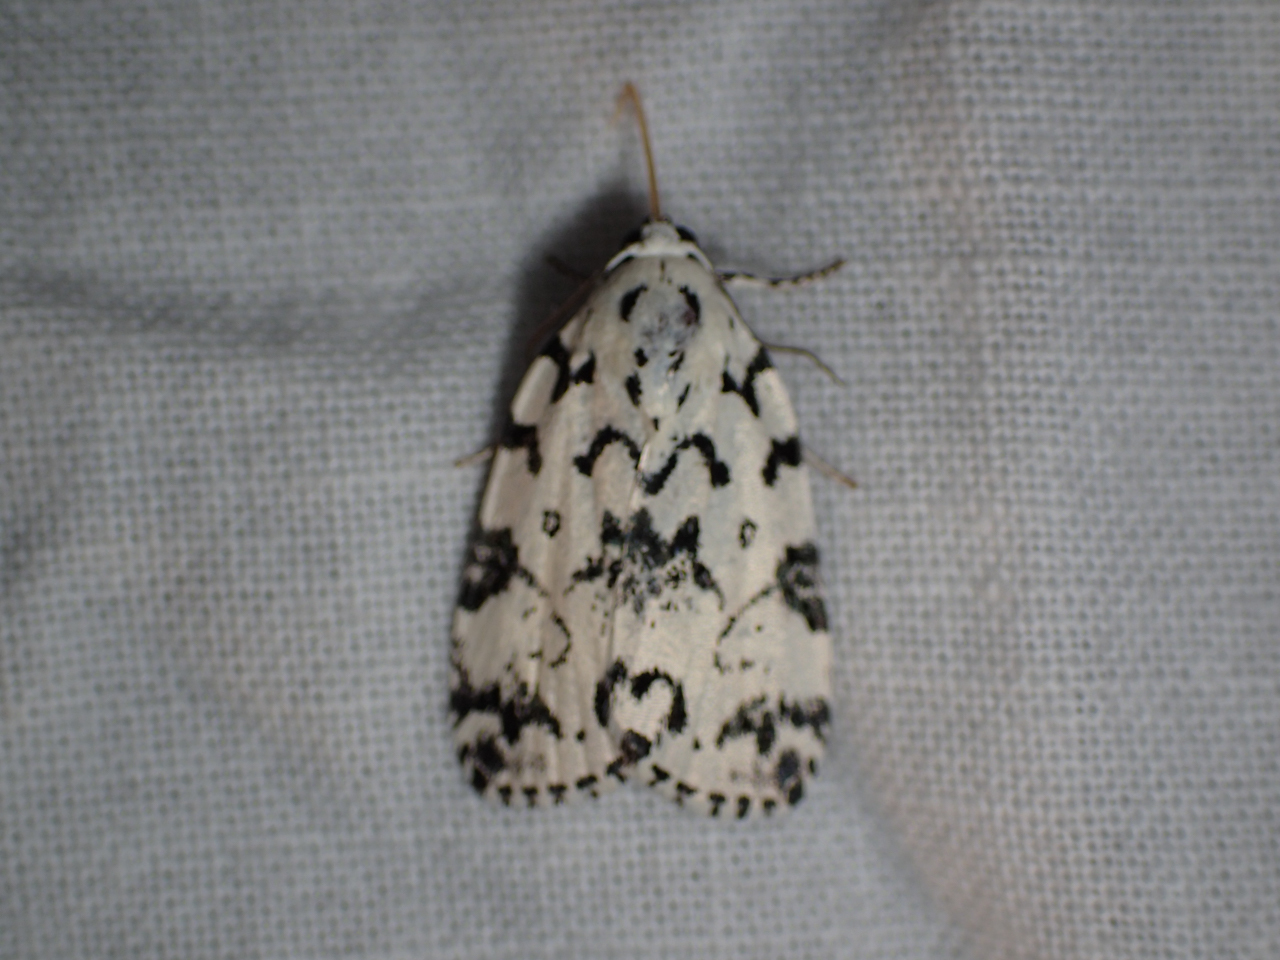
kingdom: Animalia
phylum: Arthropoda
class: Insecta
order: Lepidoptera
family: Noctuidae
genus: Polygrammate
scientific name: Polygrammate hebraeicum
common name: Hebrew moth
